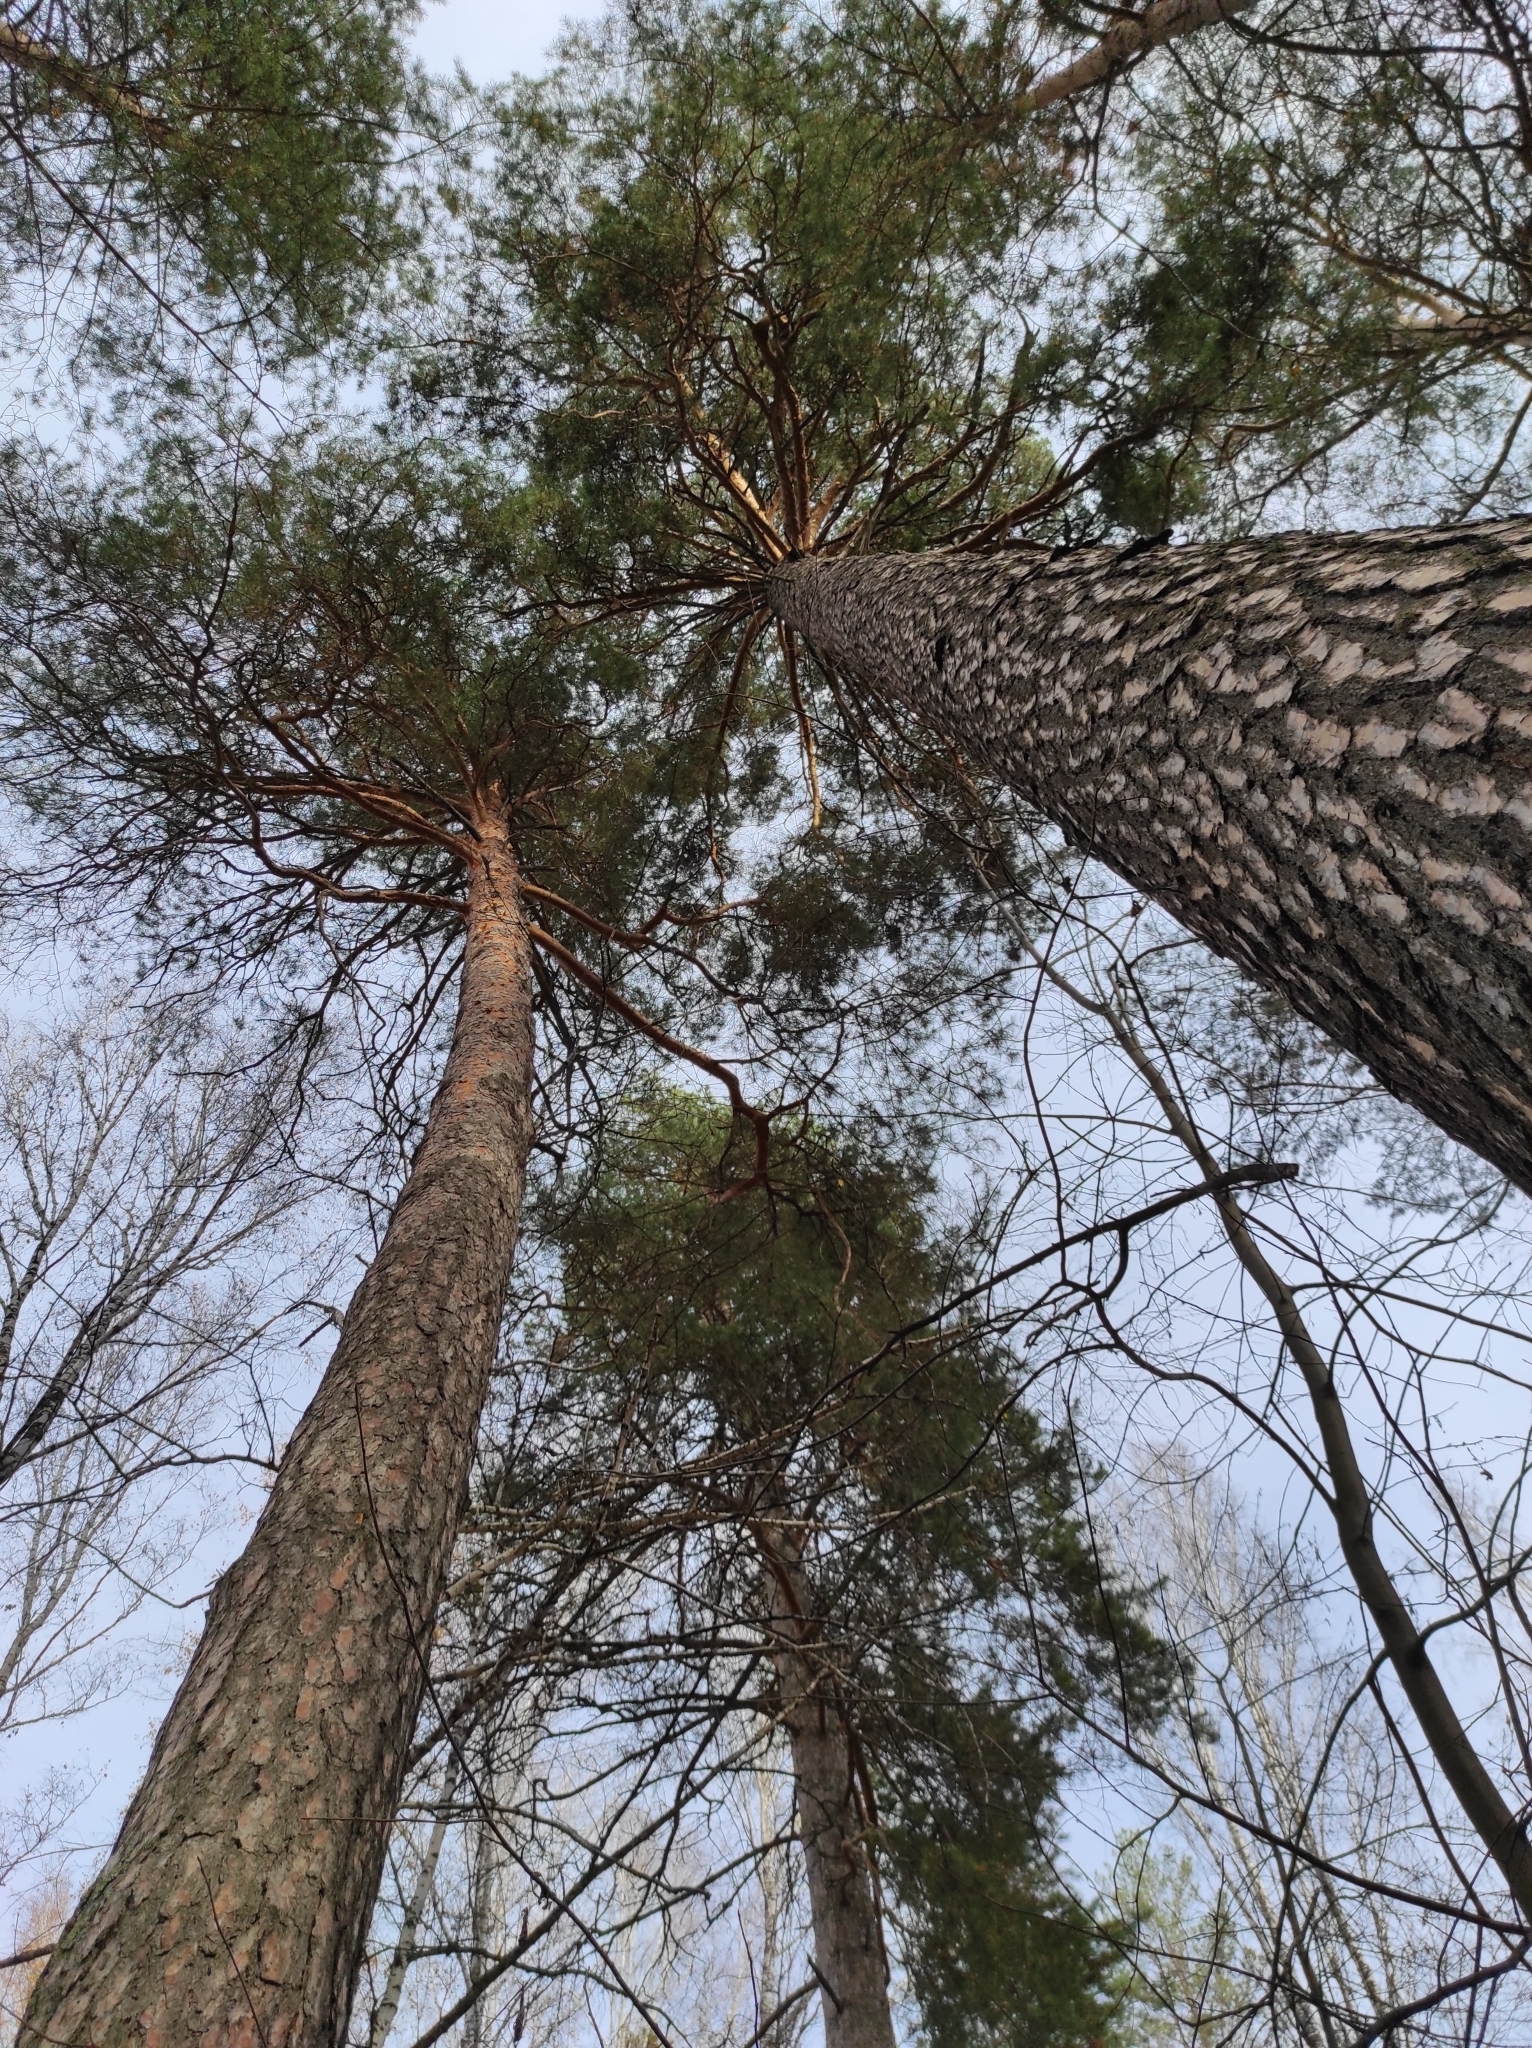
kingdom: Plantae
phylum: Tracheophyta
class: Pinopsida
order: Pinales
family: Pinaceae
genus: Pinus
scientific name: Pinus sylvestris
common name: Scots pine
